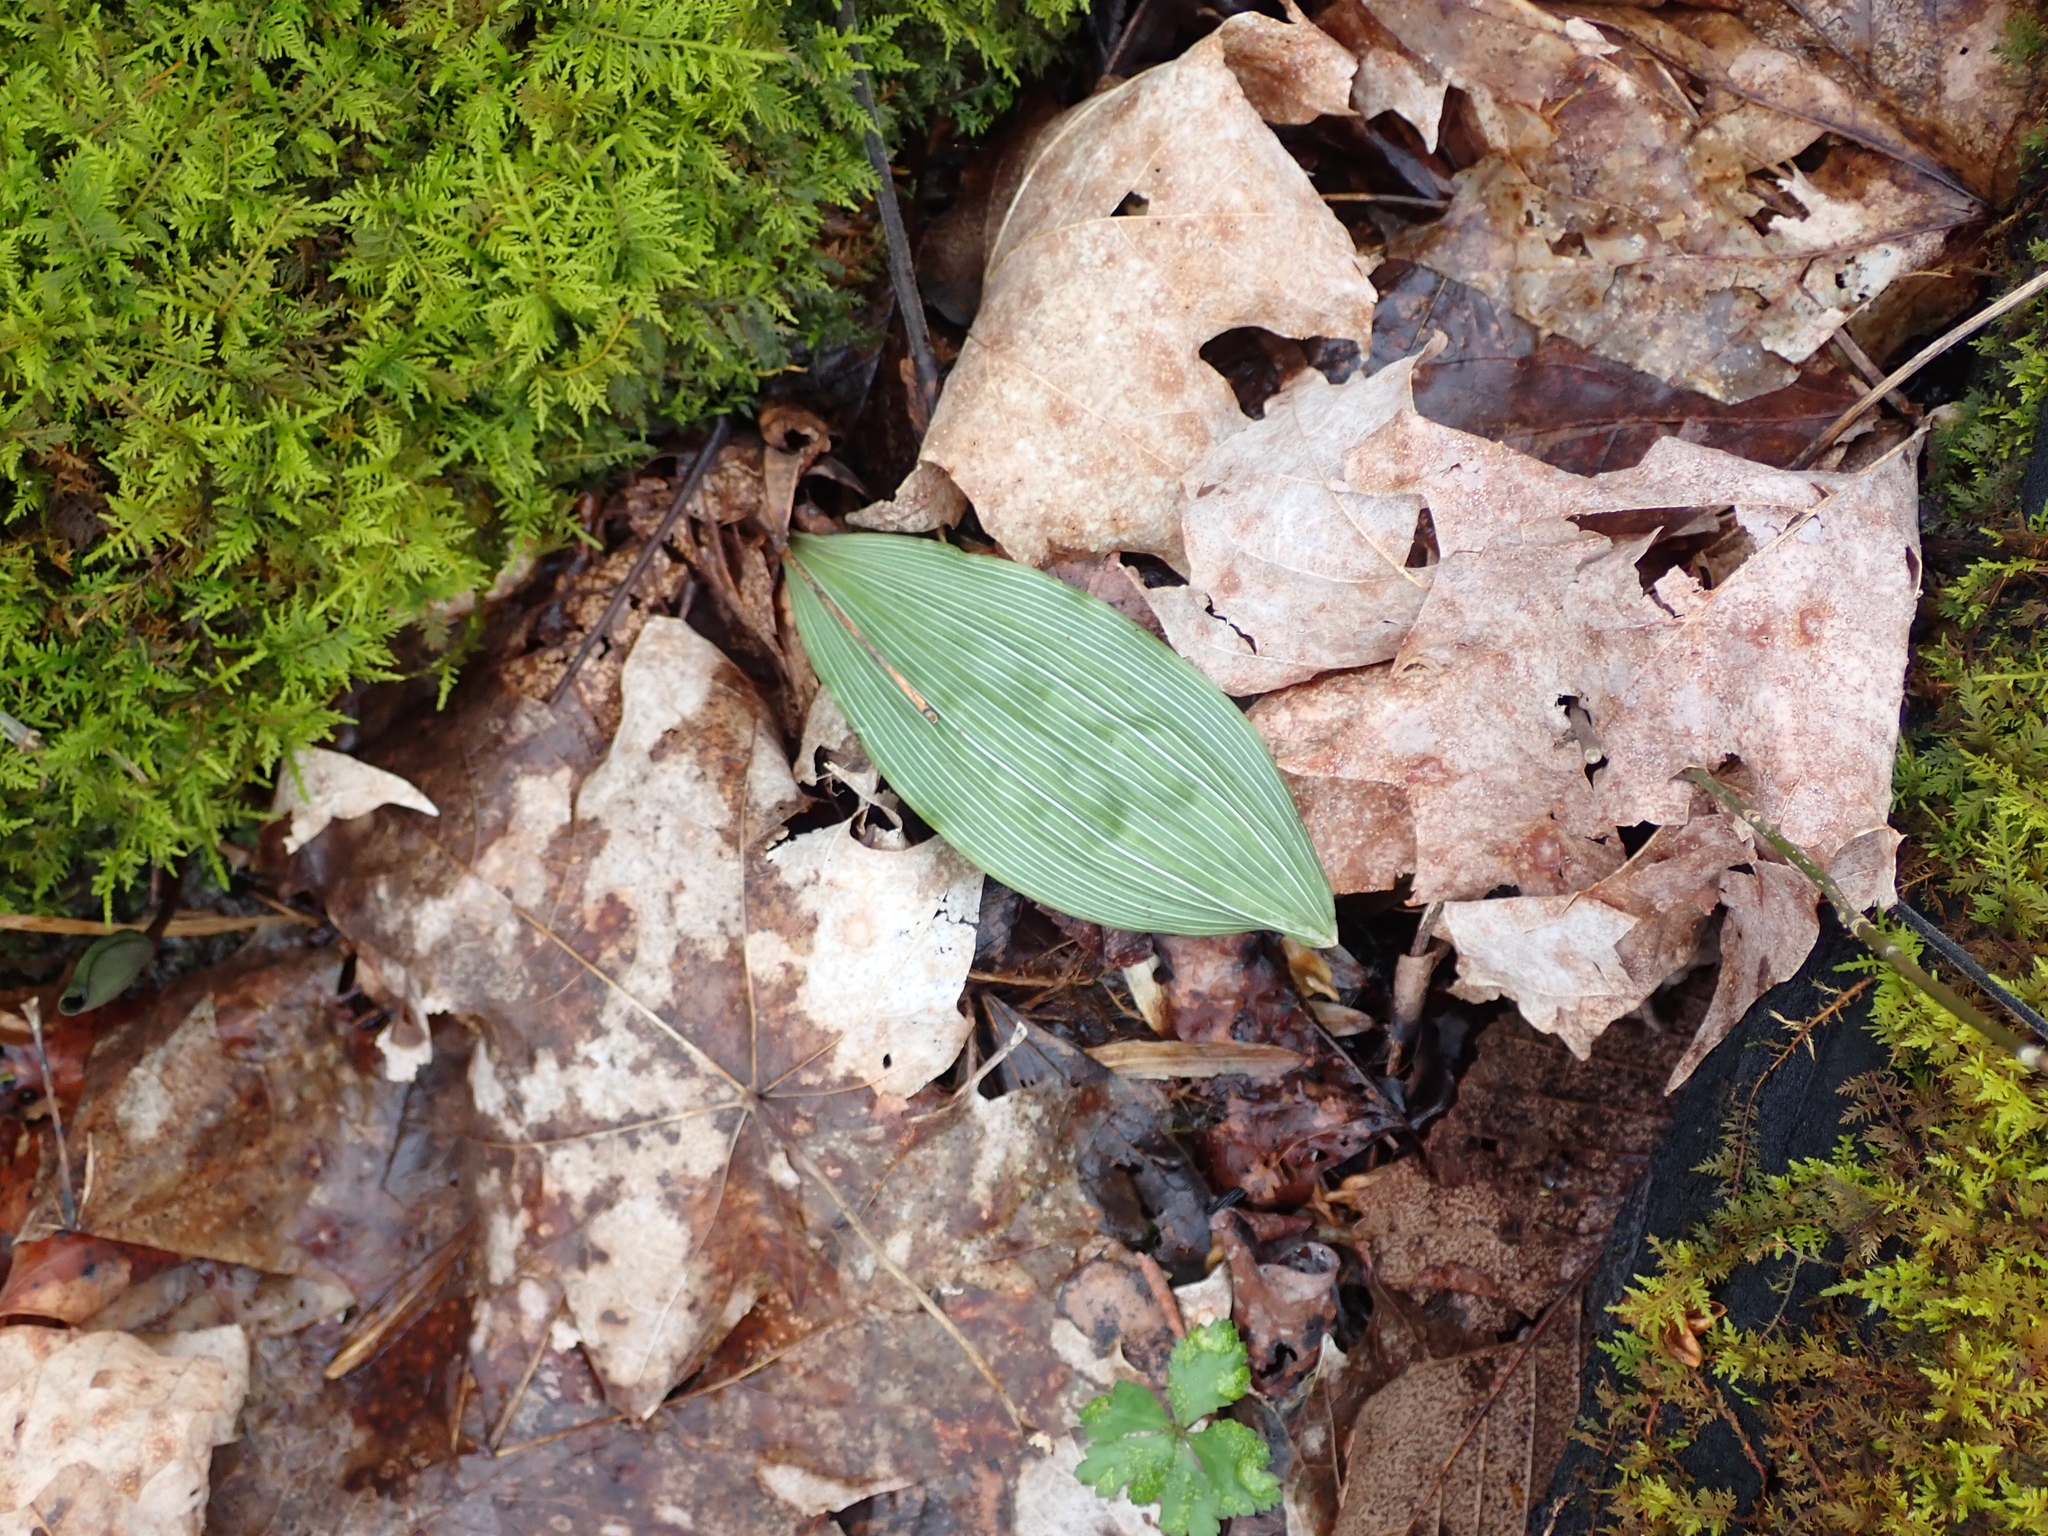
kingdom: Plantae
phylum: Tracheophyta
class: Liliopsida
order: Asparagales
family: Orchidaceae
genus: Aplectrum
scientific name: Aplectrum hyemale
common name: Adam-and-eve
